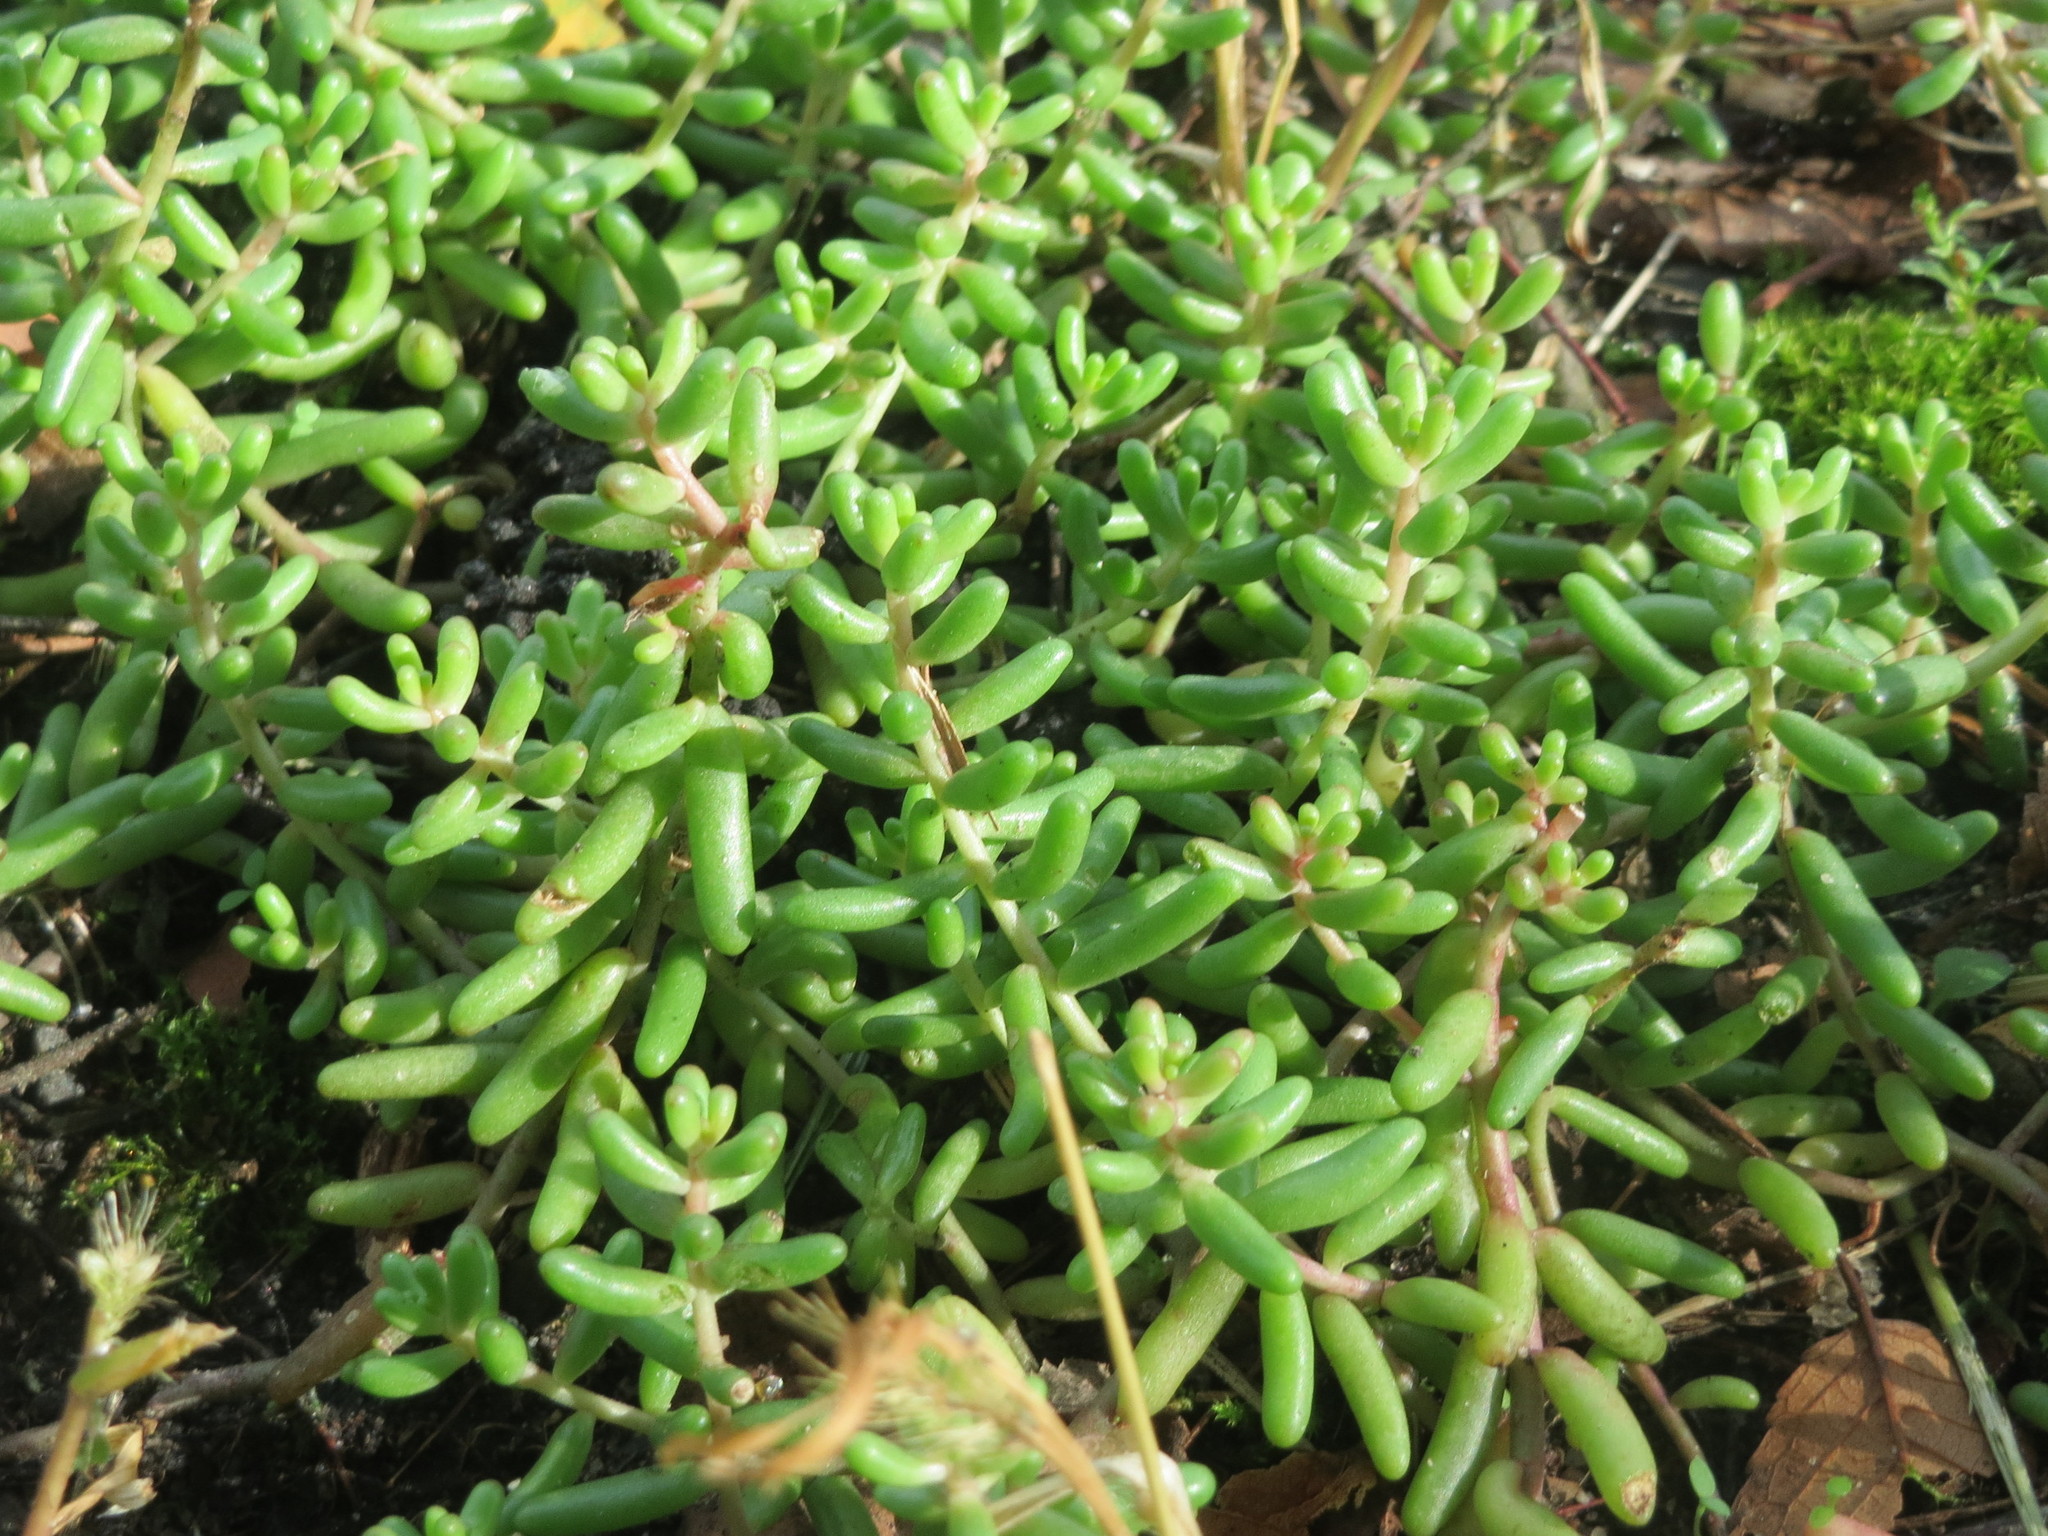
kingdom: Plantae
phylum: Tracheophyta
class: Magnoliopsida
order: Saxifragales
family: Crassulaceae
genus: Sedum
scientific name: Sedum album
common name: White stonecrop
